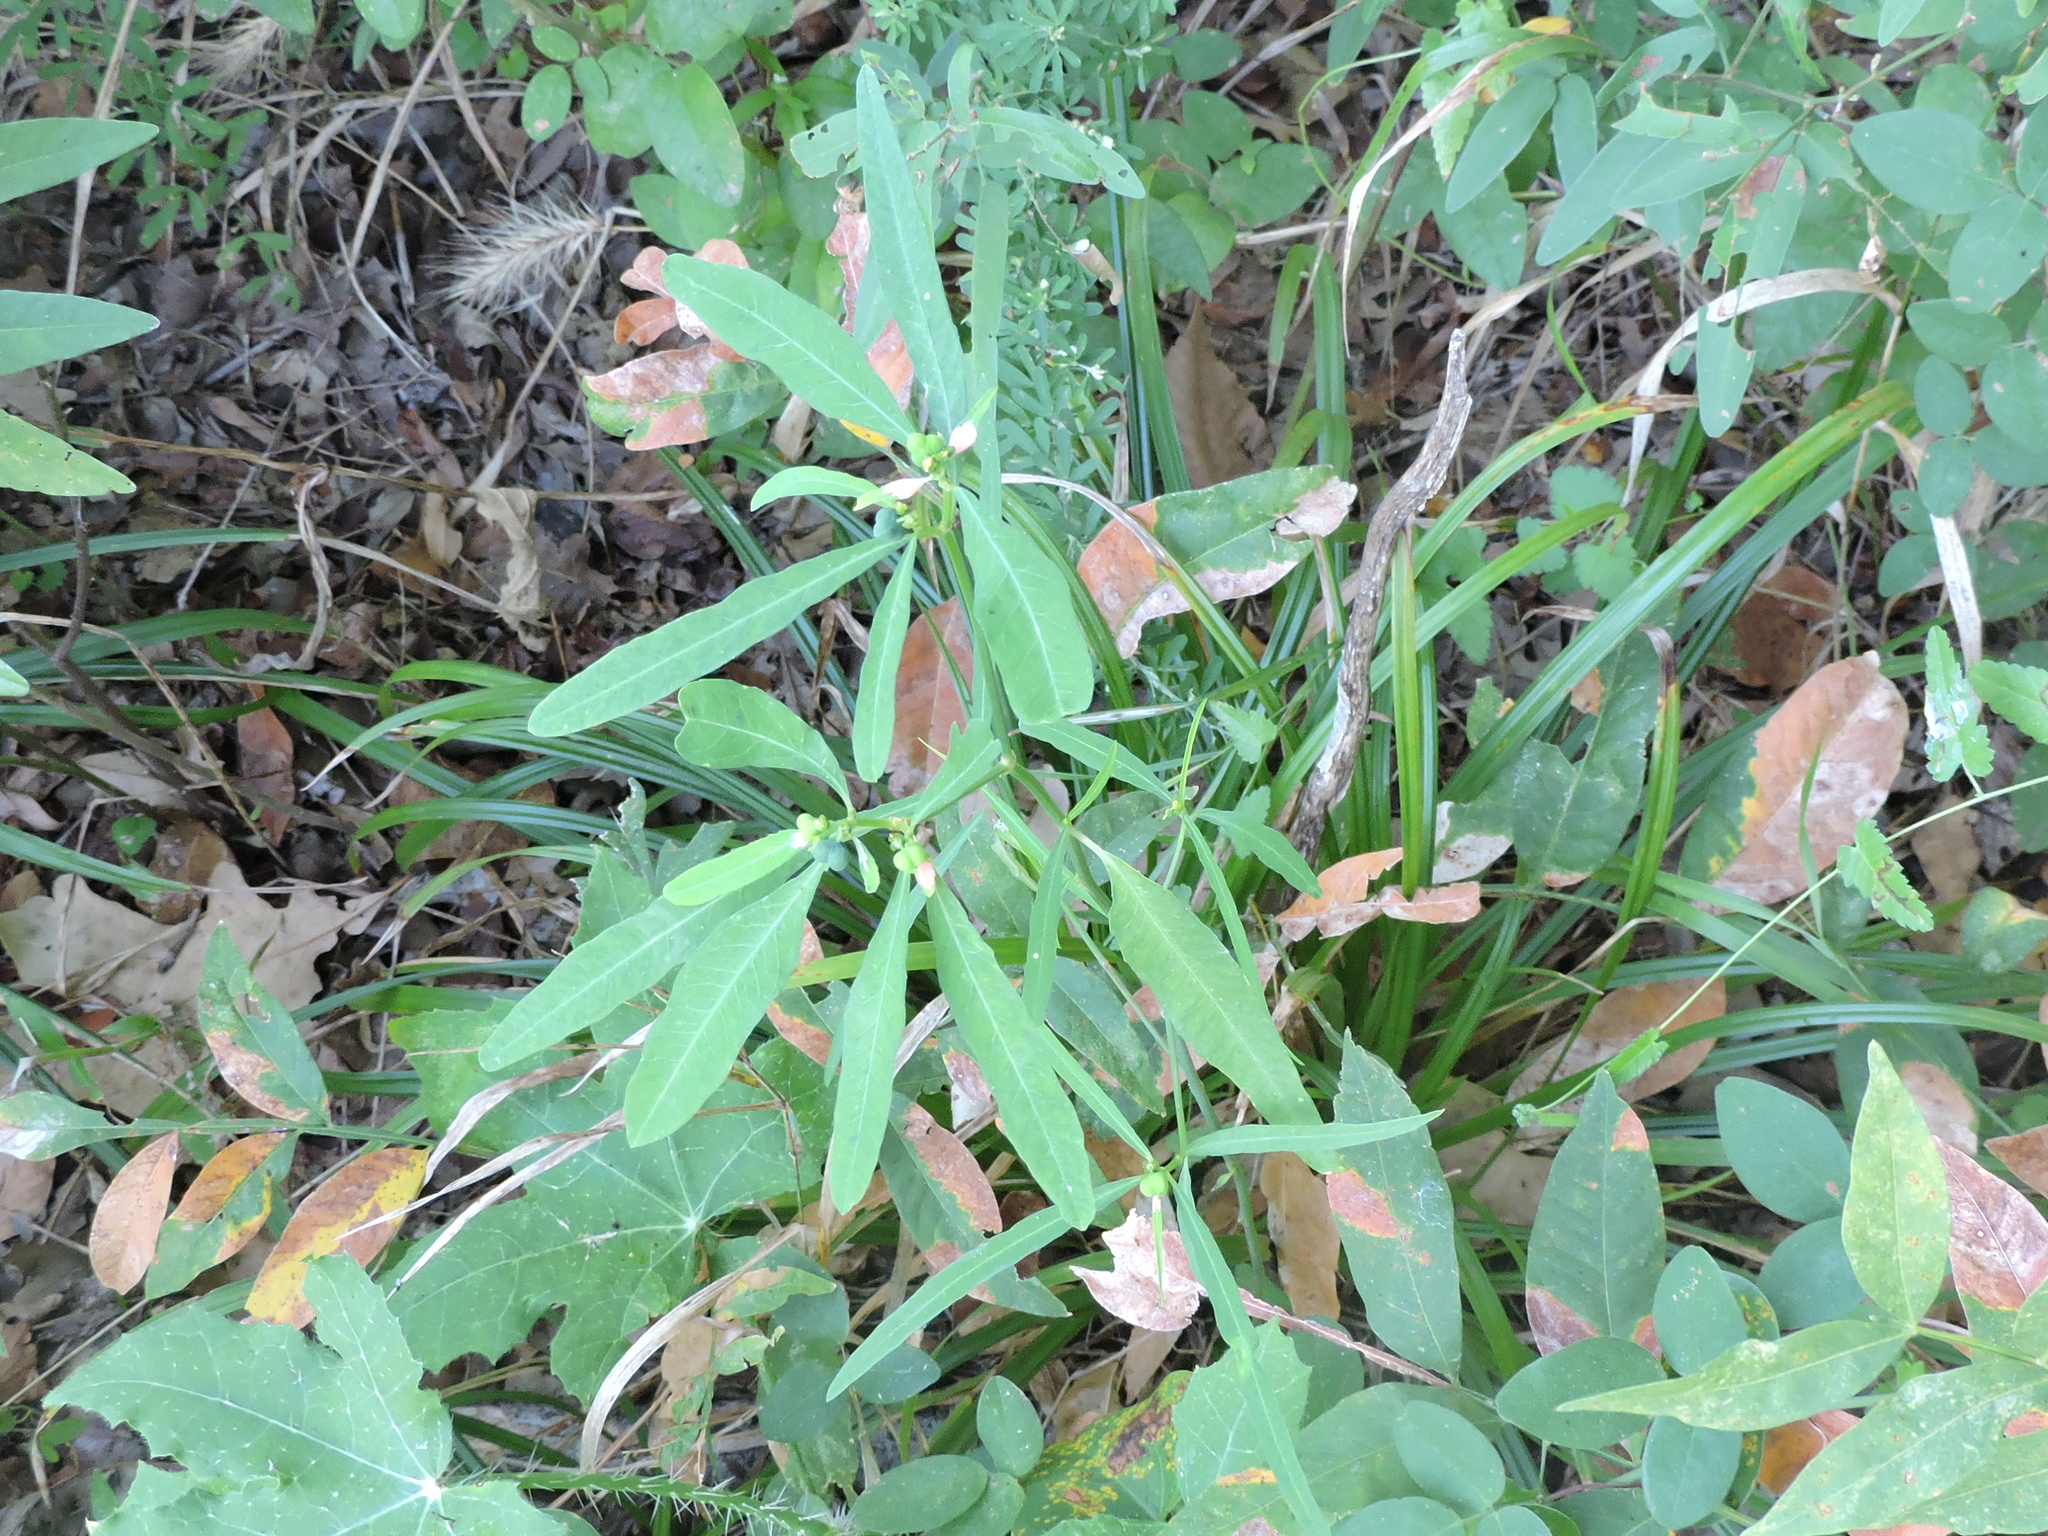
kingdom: Plantae
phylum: Tracheophyta
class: Magnoliopsida
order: Malpighiales
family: Euphorbiaceae
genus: Euphorbia
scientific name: Euphorbia heterophylla
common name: Mexican fireplant
